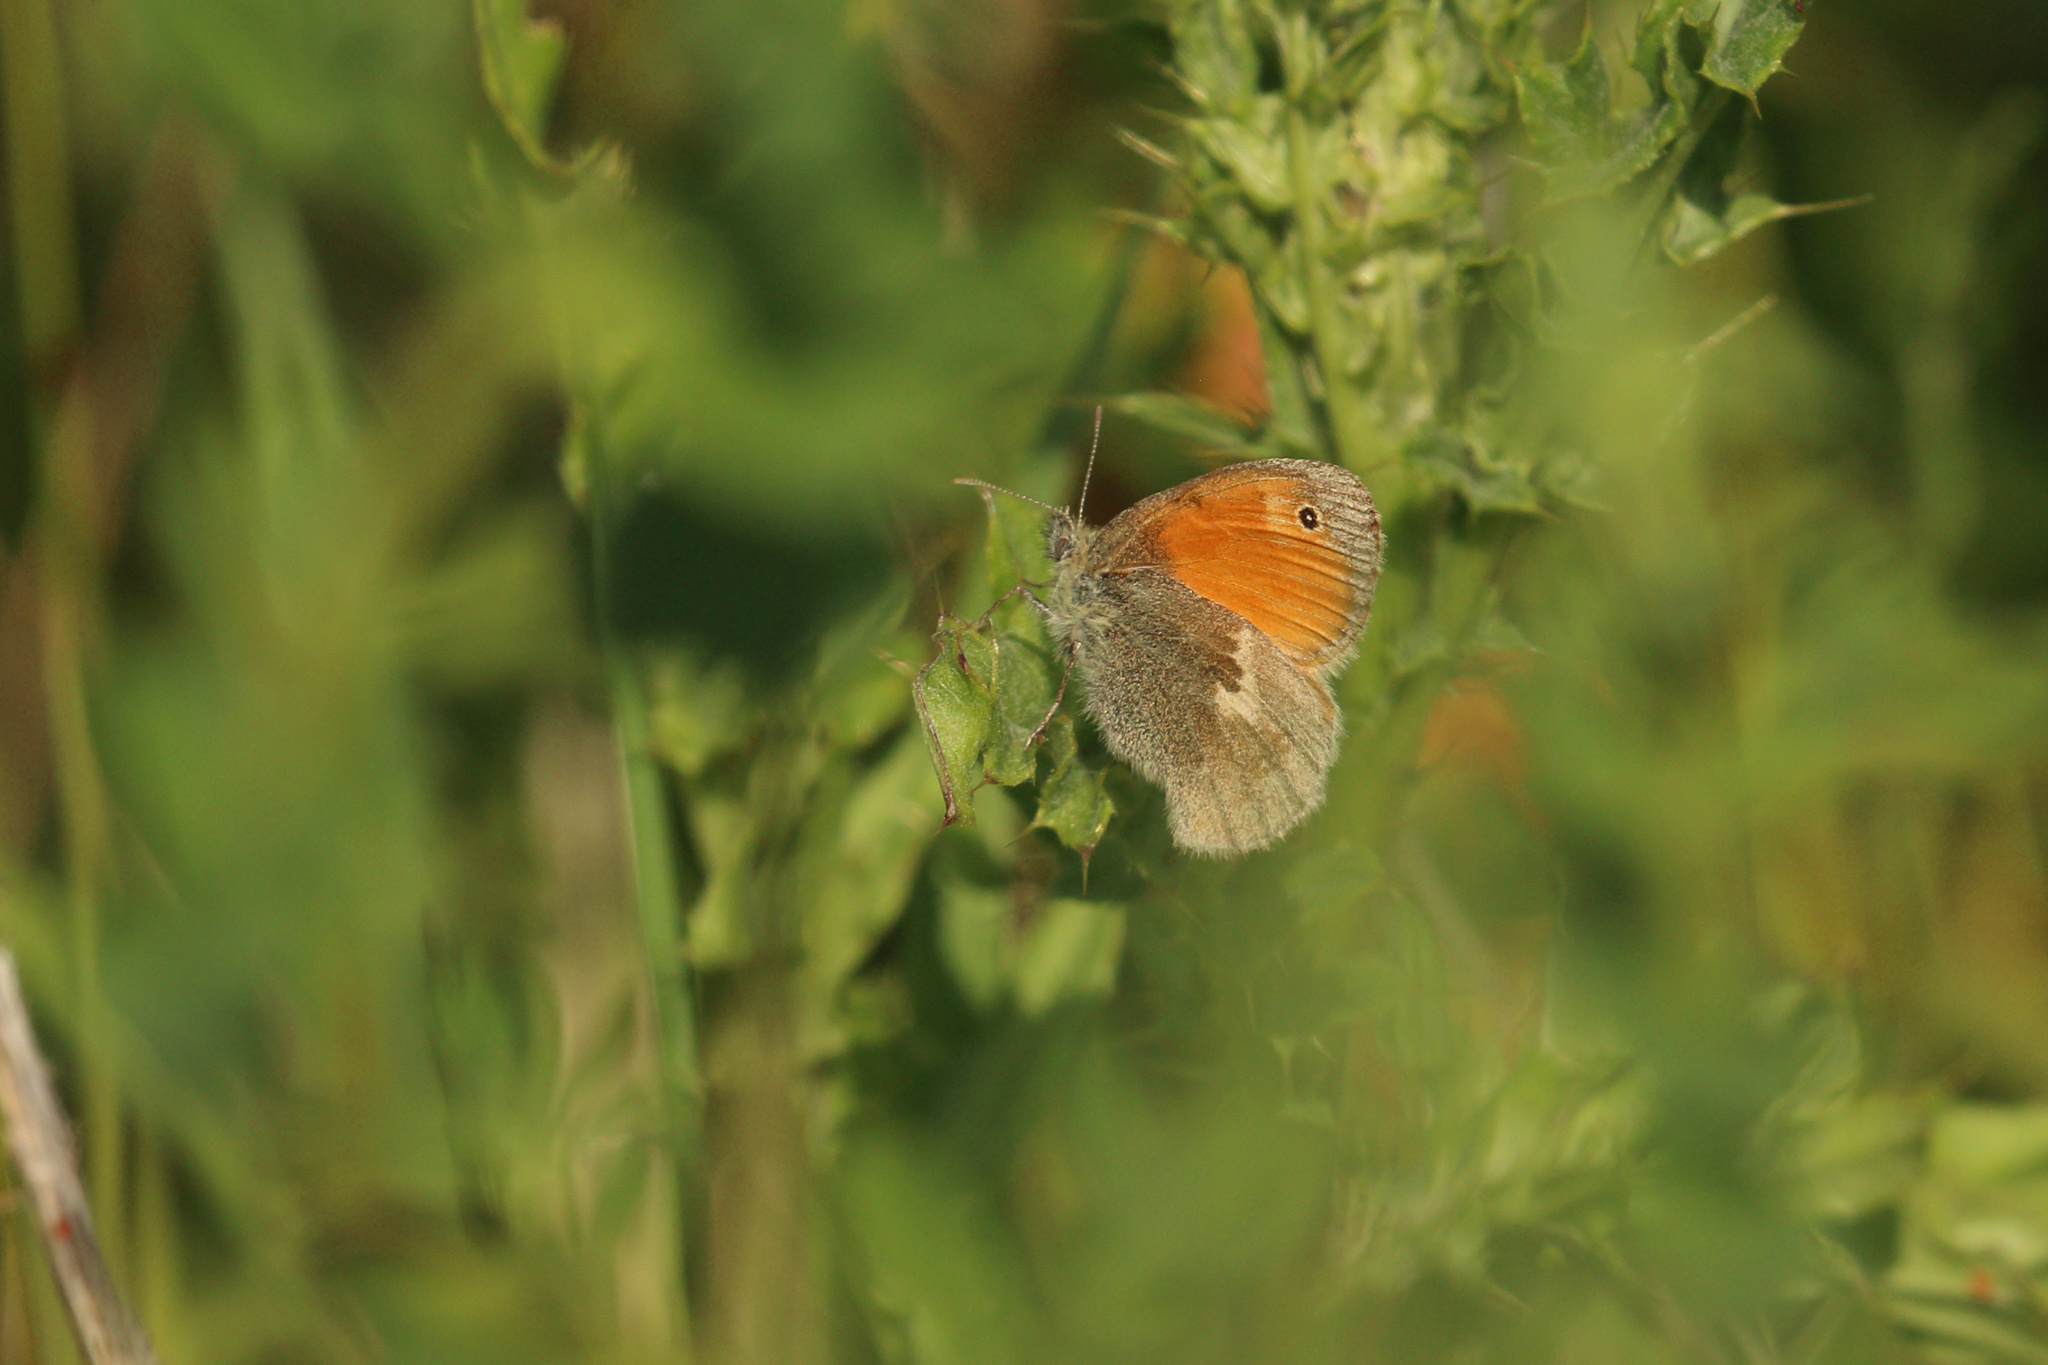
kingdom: Animalia
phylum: Arthropoda
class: Insecta
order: Lepidoptera
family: Nymphalidae
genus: Coenonympha
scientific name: Coenonympha pamphilus
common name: Small heath
